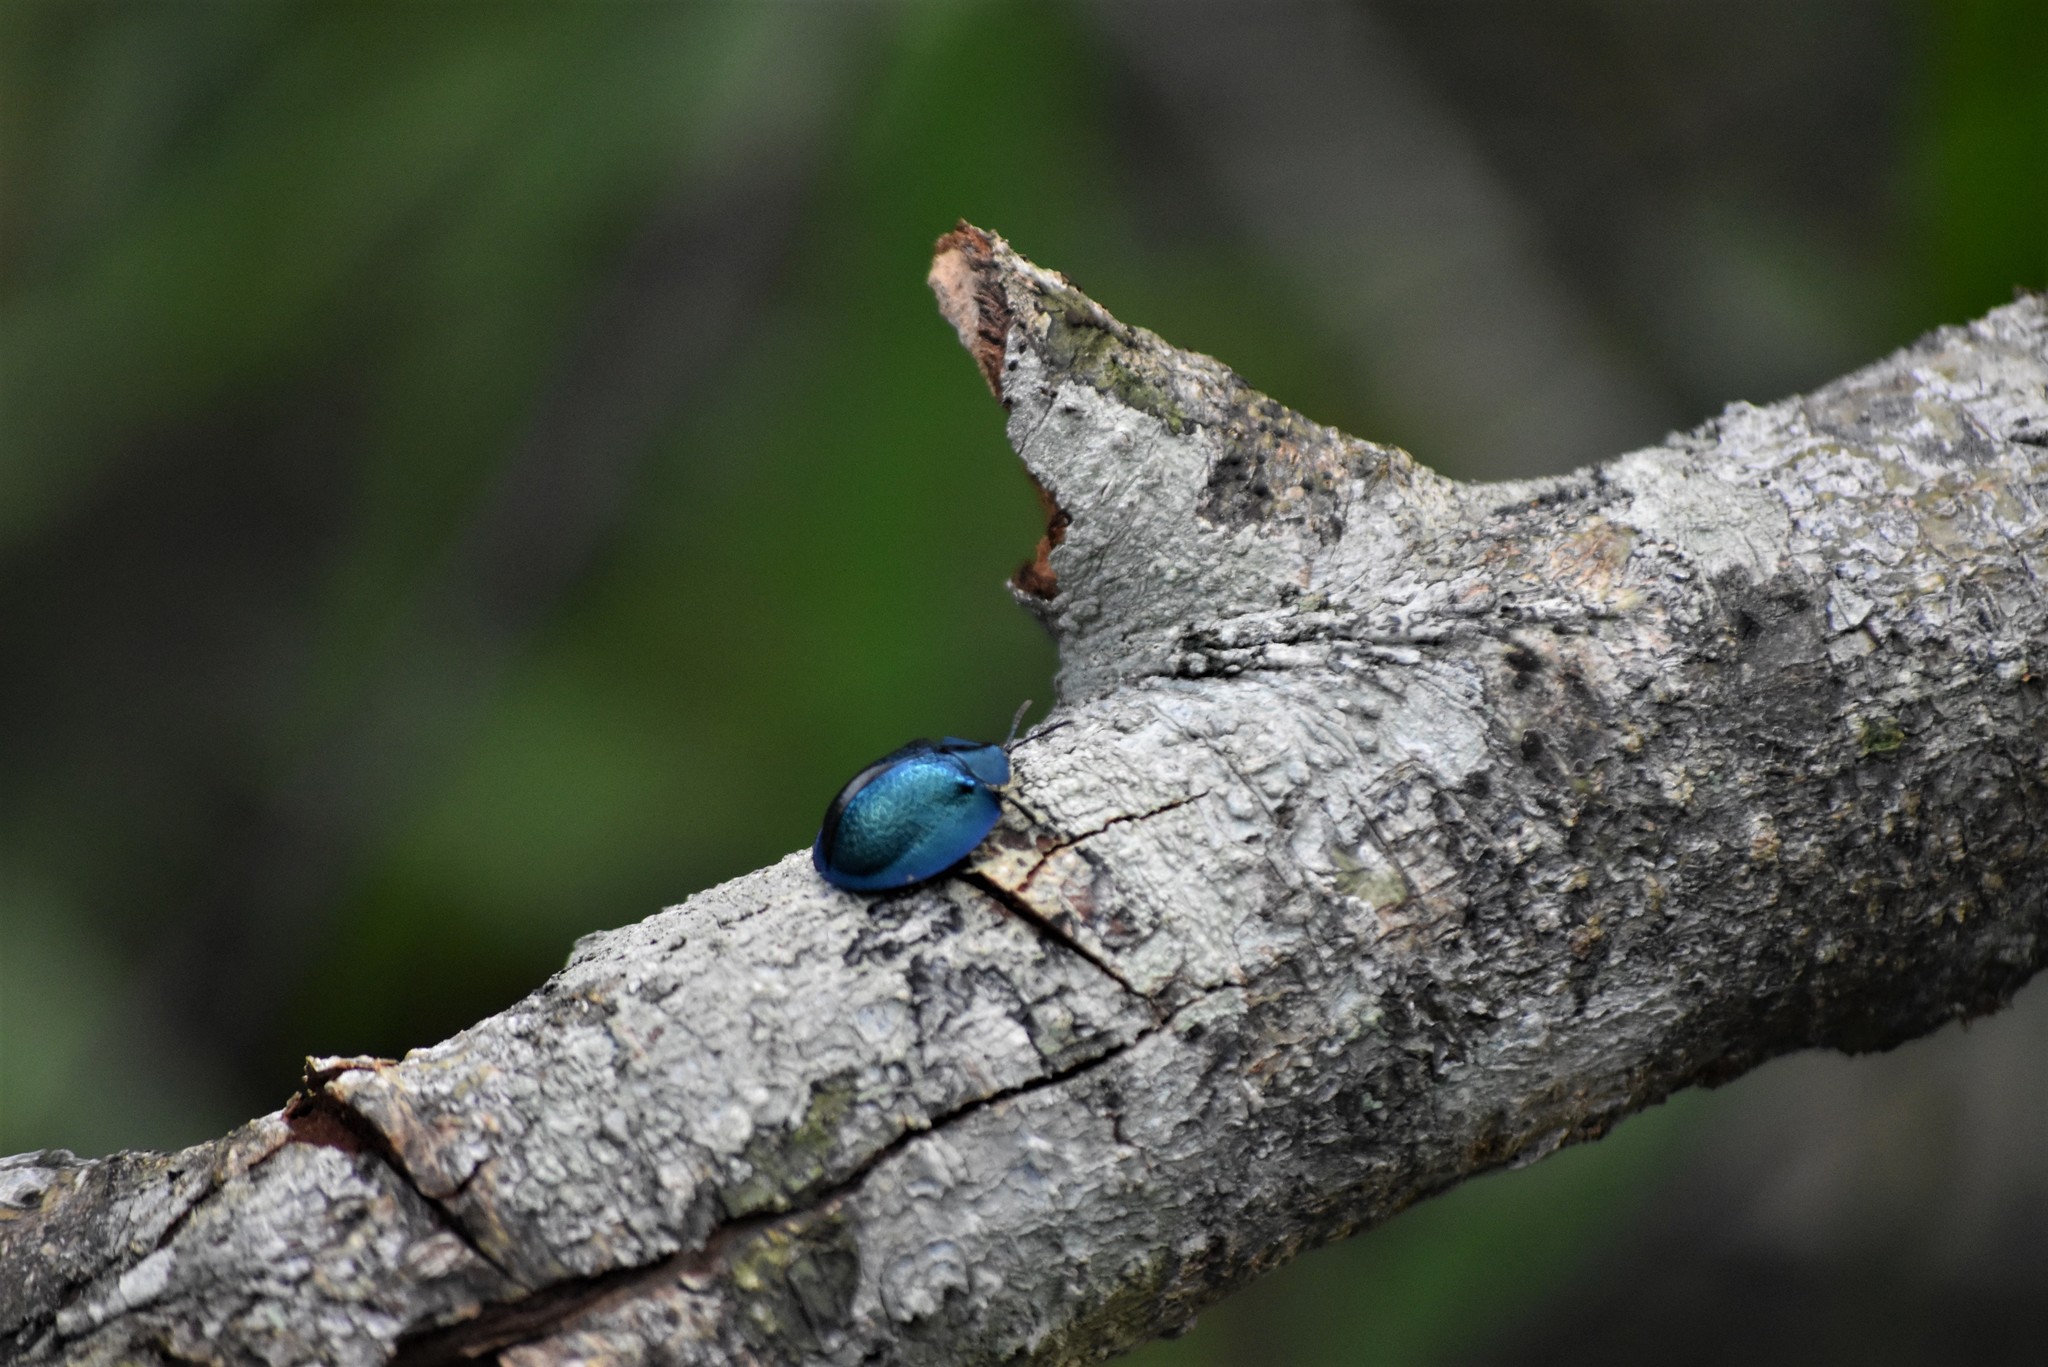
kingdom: Animalia
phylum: Arthropoda
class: Insecta
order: Coleoptera
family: Chrysomelidae
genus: Cyrtonota
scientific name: Cyrtonota thalassina
